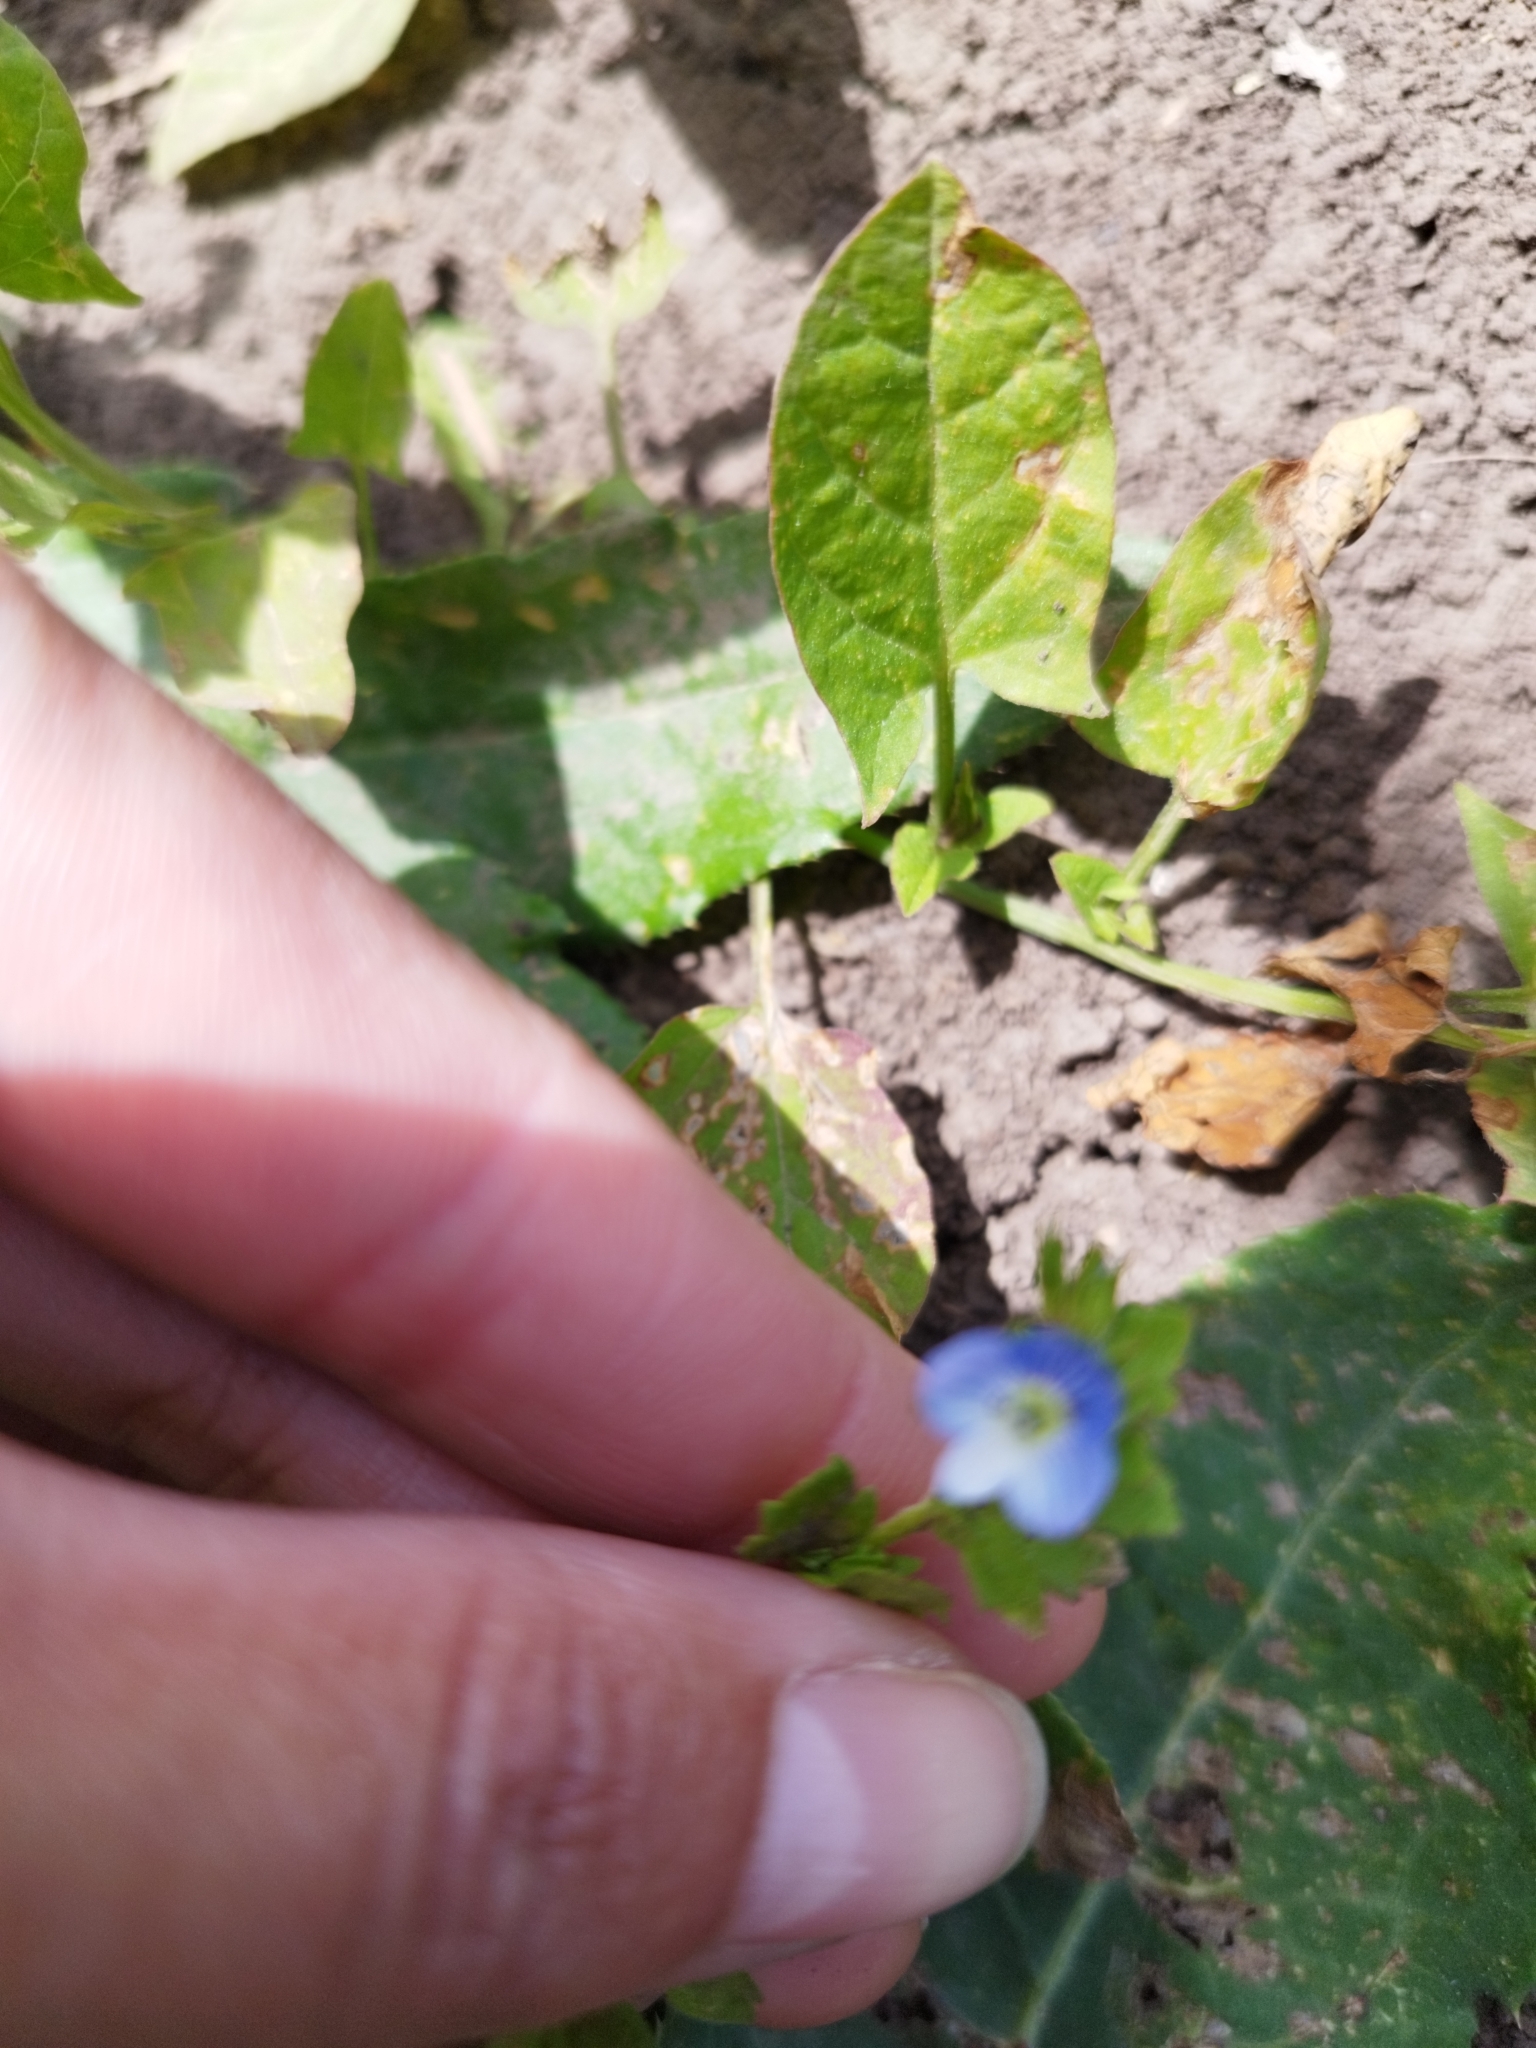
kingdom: Plantae
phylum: Tracheophyta
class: Magnoliopsida
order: Lamiales
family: Plantaginaceae
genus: Veronica
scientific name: Veronica persica
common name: Common field-speedwell
